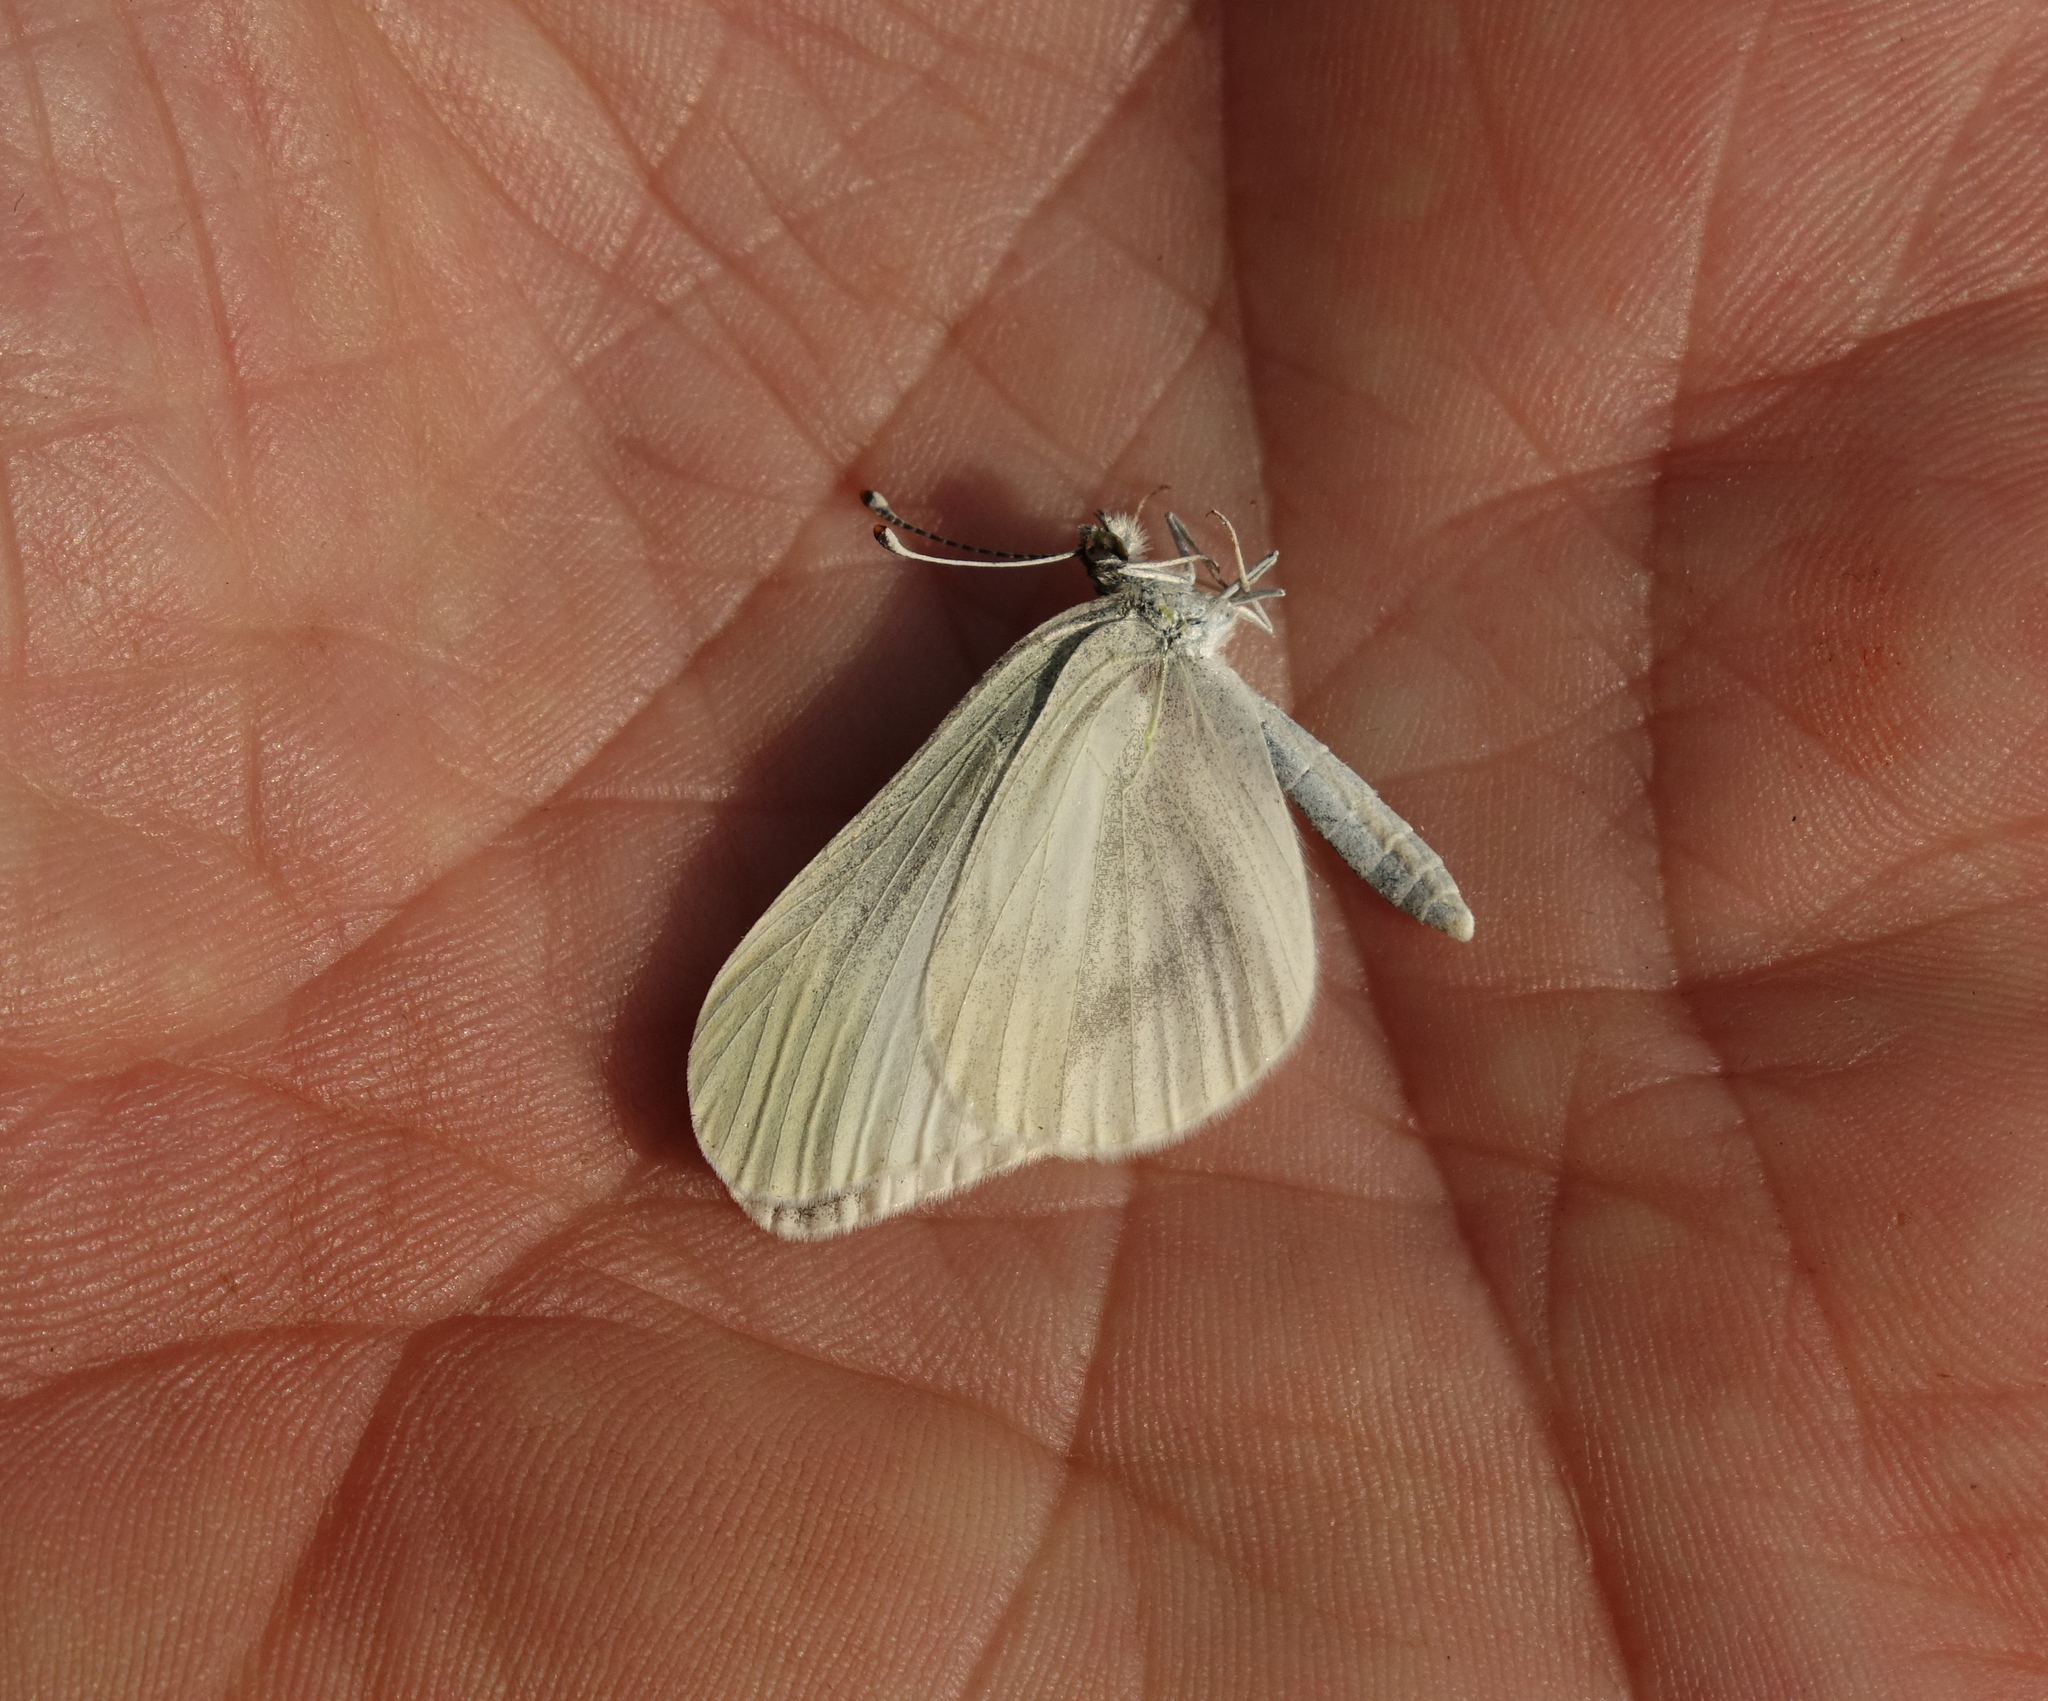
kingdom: Animalia
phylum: Arthropoda
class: Insecta
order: Lepidoptera
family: Pieridae
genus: Leptidea
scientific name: Leptidea amurensis
